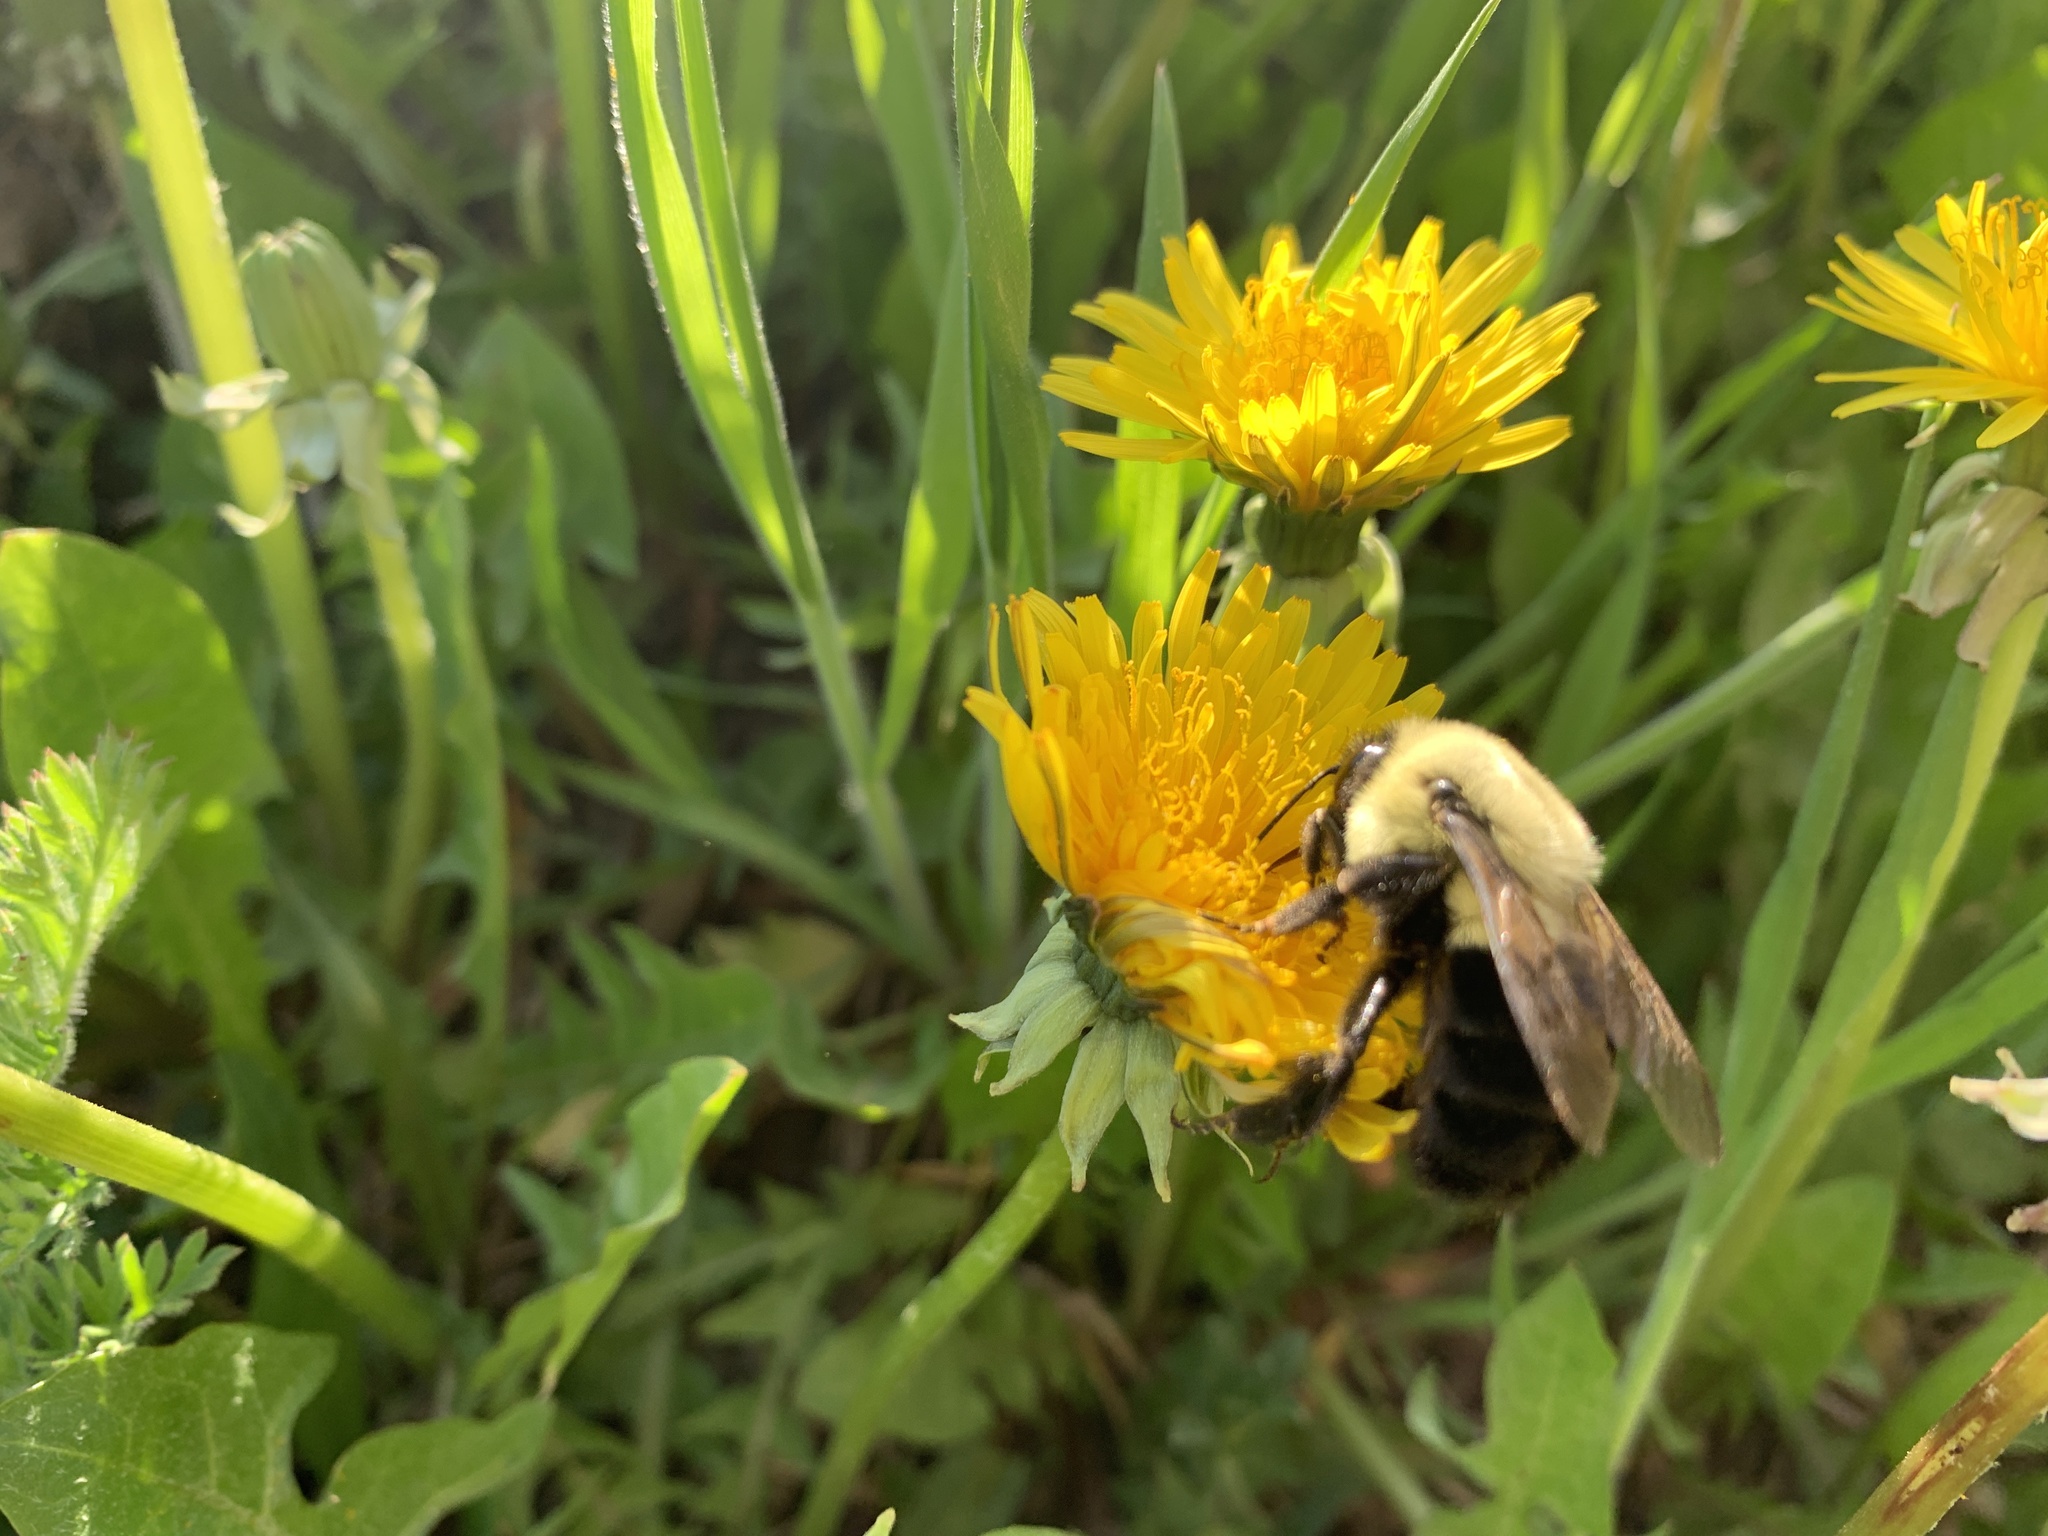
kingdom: Animalia
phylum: Arthropoda
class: Insecta
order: Hymenoptera
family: Apidae
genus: Bombus
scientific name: Bombus impatiens
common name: Common eastern bumble bee
